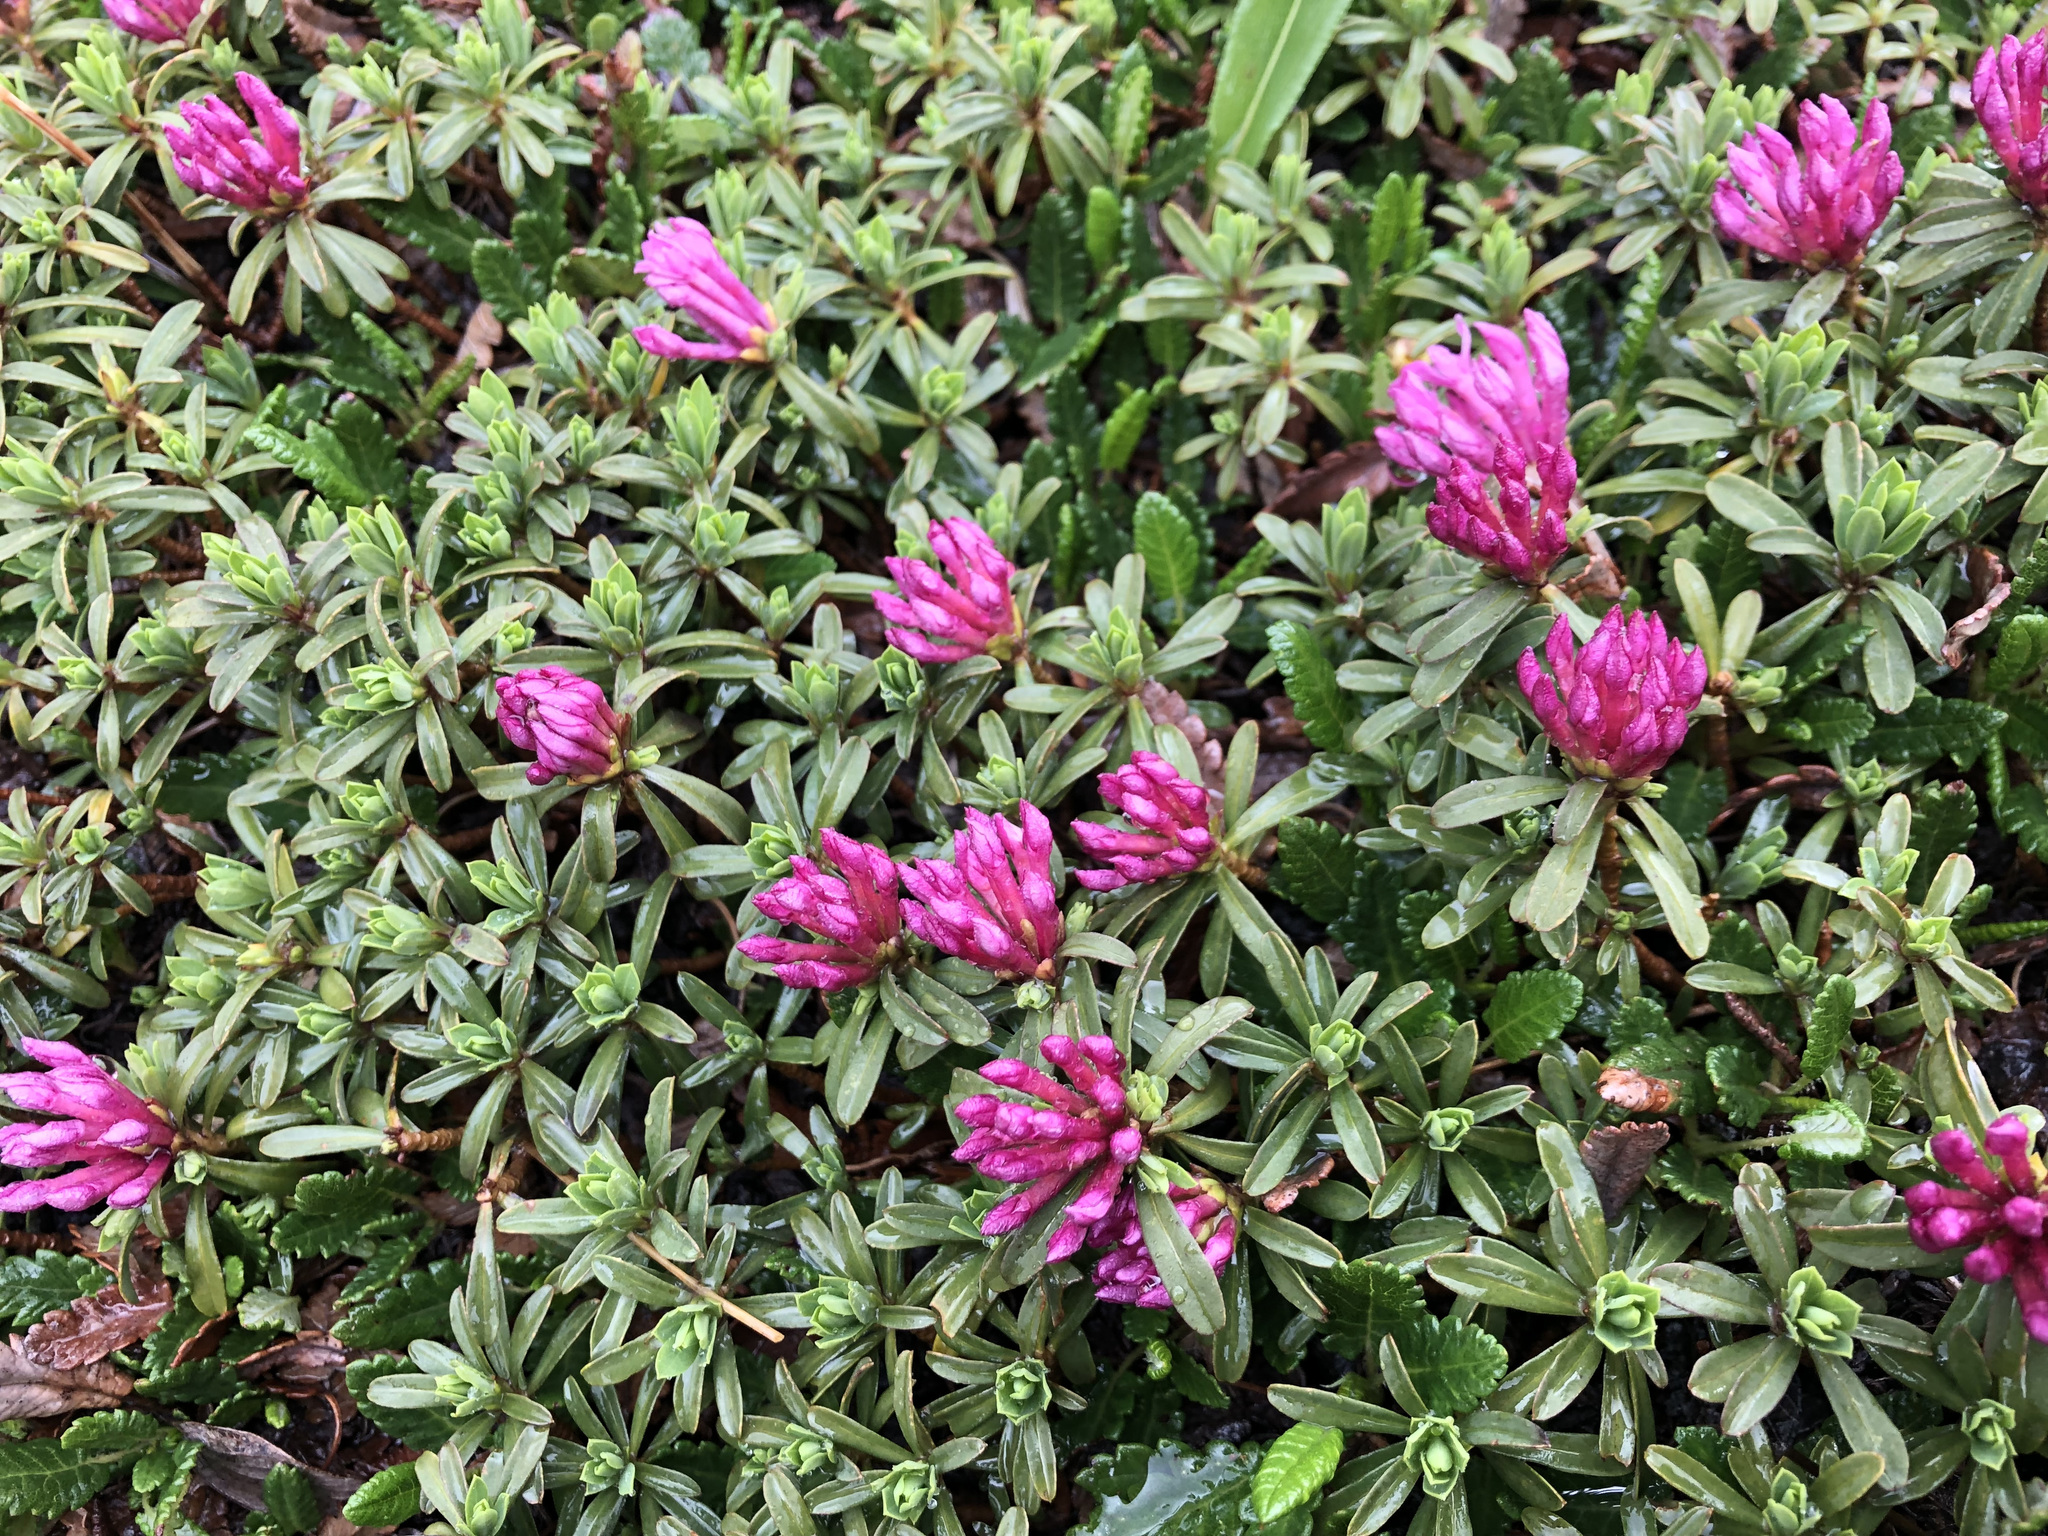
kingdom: Plantae
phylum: Tracheophyta
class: Magnoliopsida
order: Malvales
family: Thymelaeaceae
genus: Daphne
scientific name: Daphne cneorum
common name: Garland-flower
